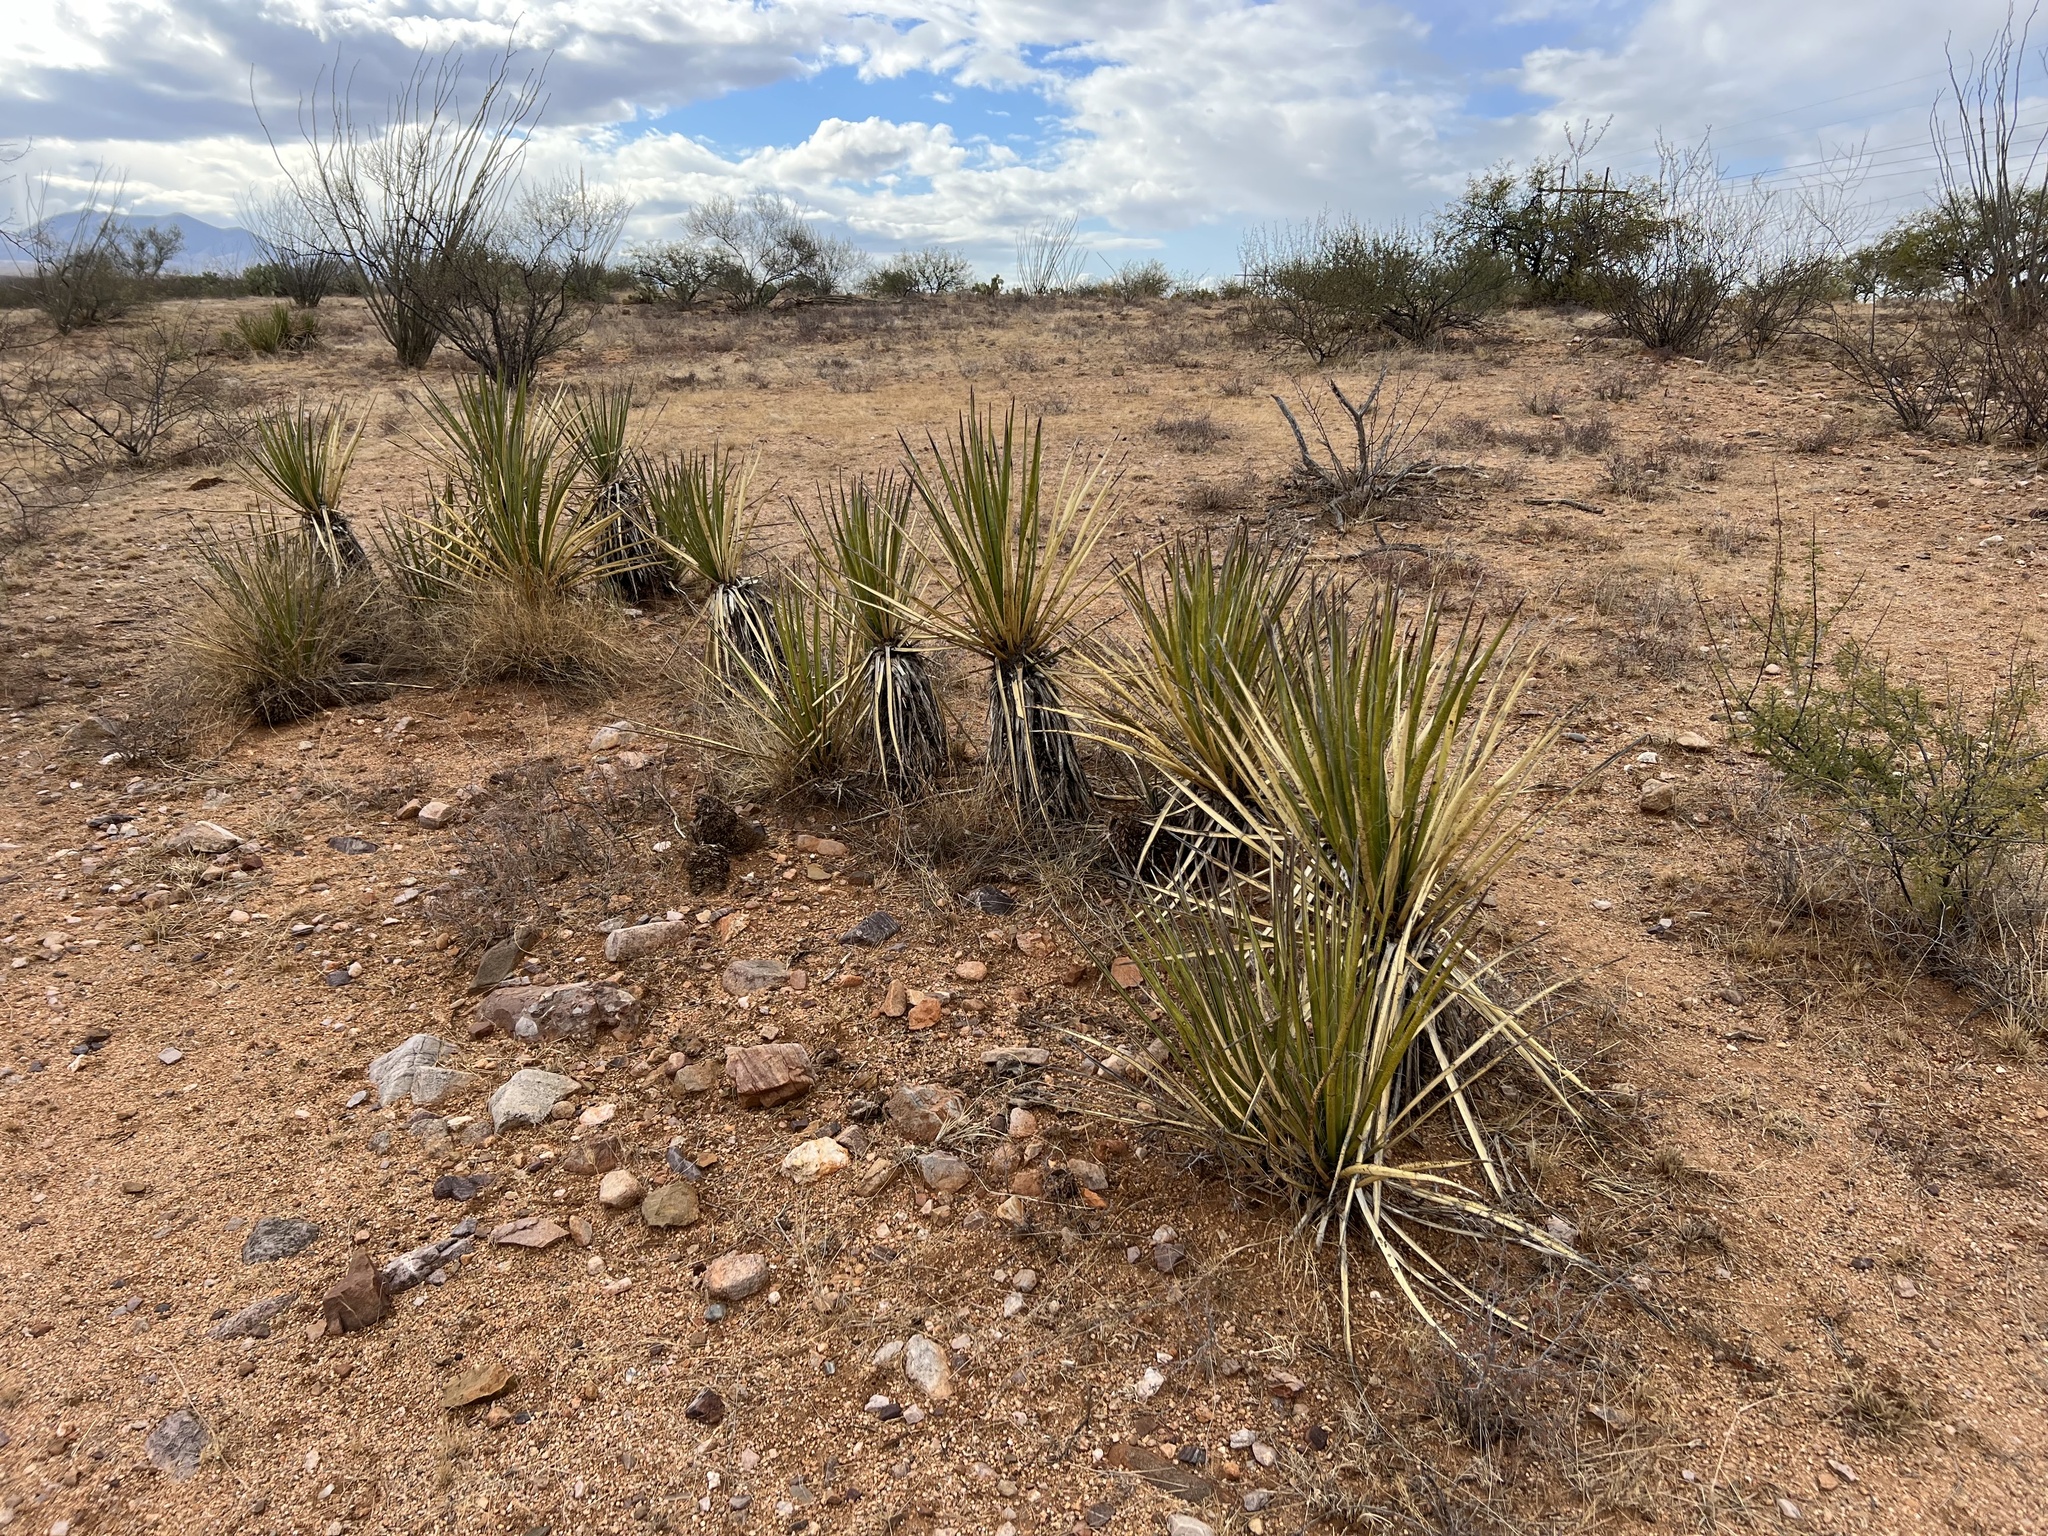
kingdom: Plantae
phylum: Tracheophyta
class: Liliopsida
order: Asparagales
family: Asparagaceae
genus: Yucca
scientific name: Yucca baccata
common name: Banana yucca
